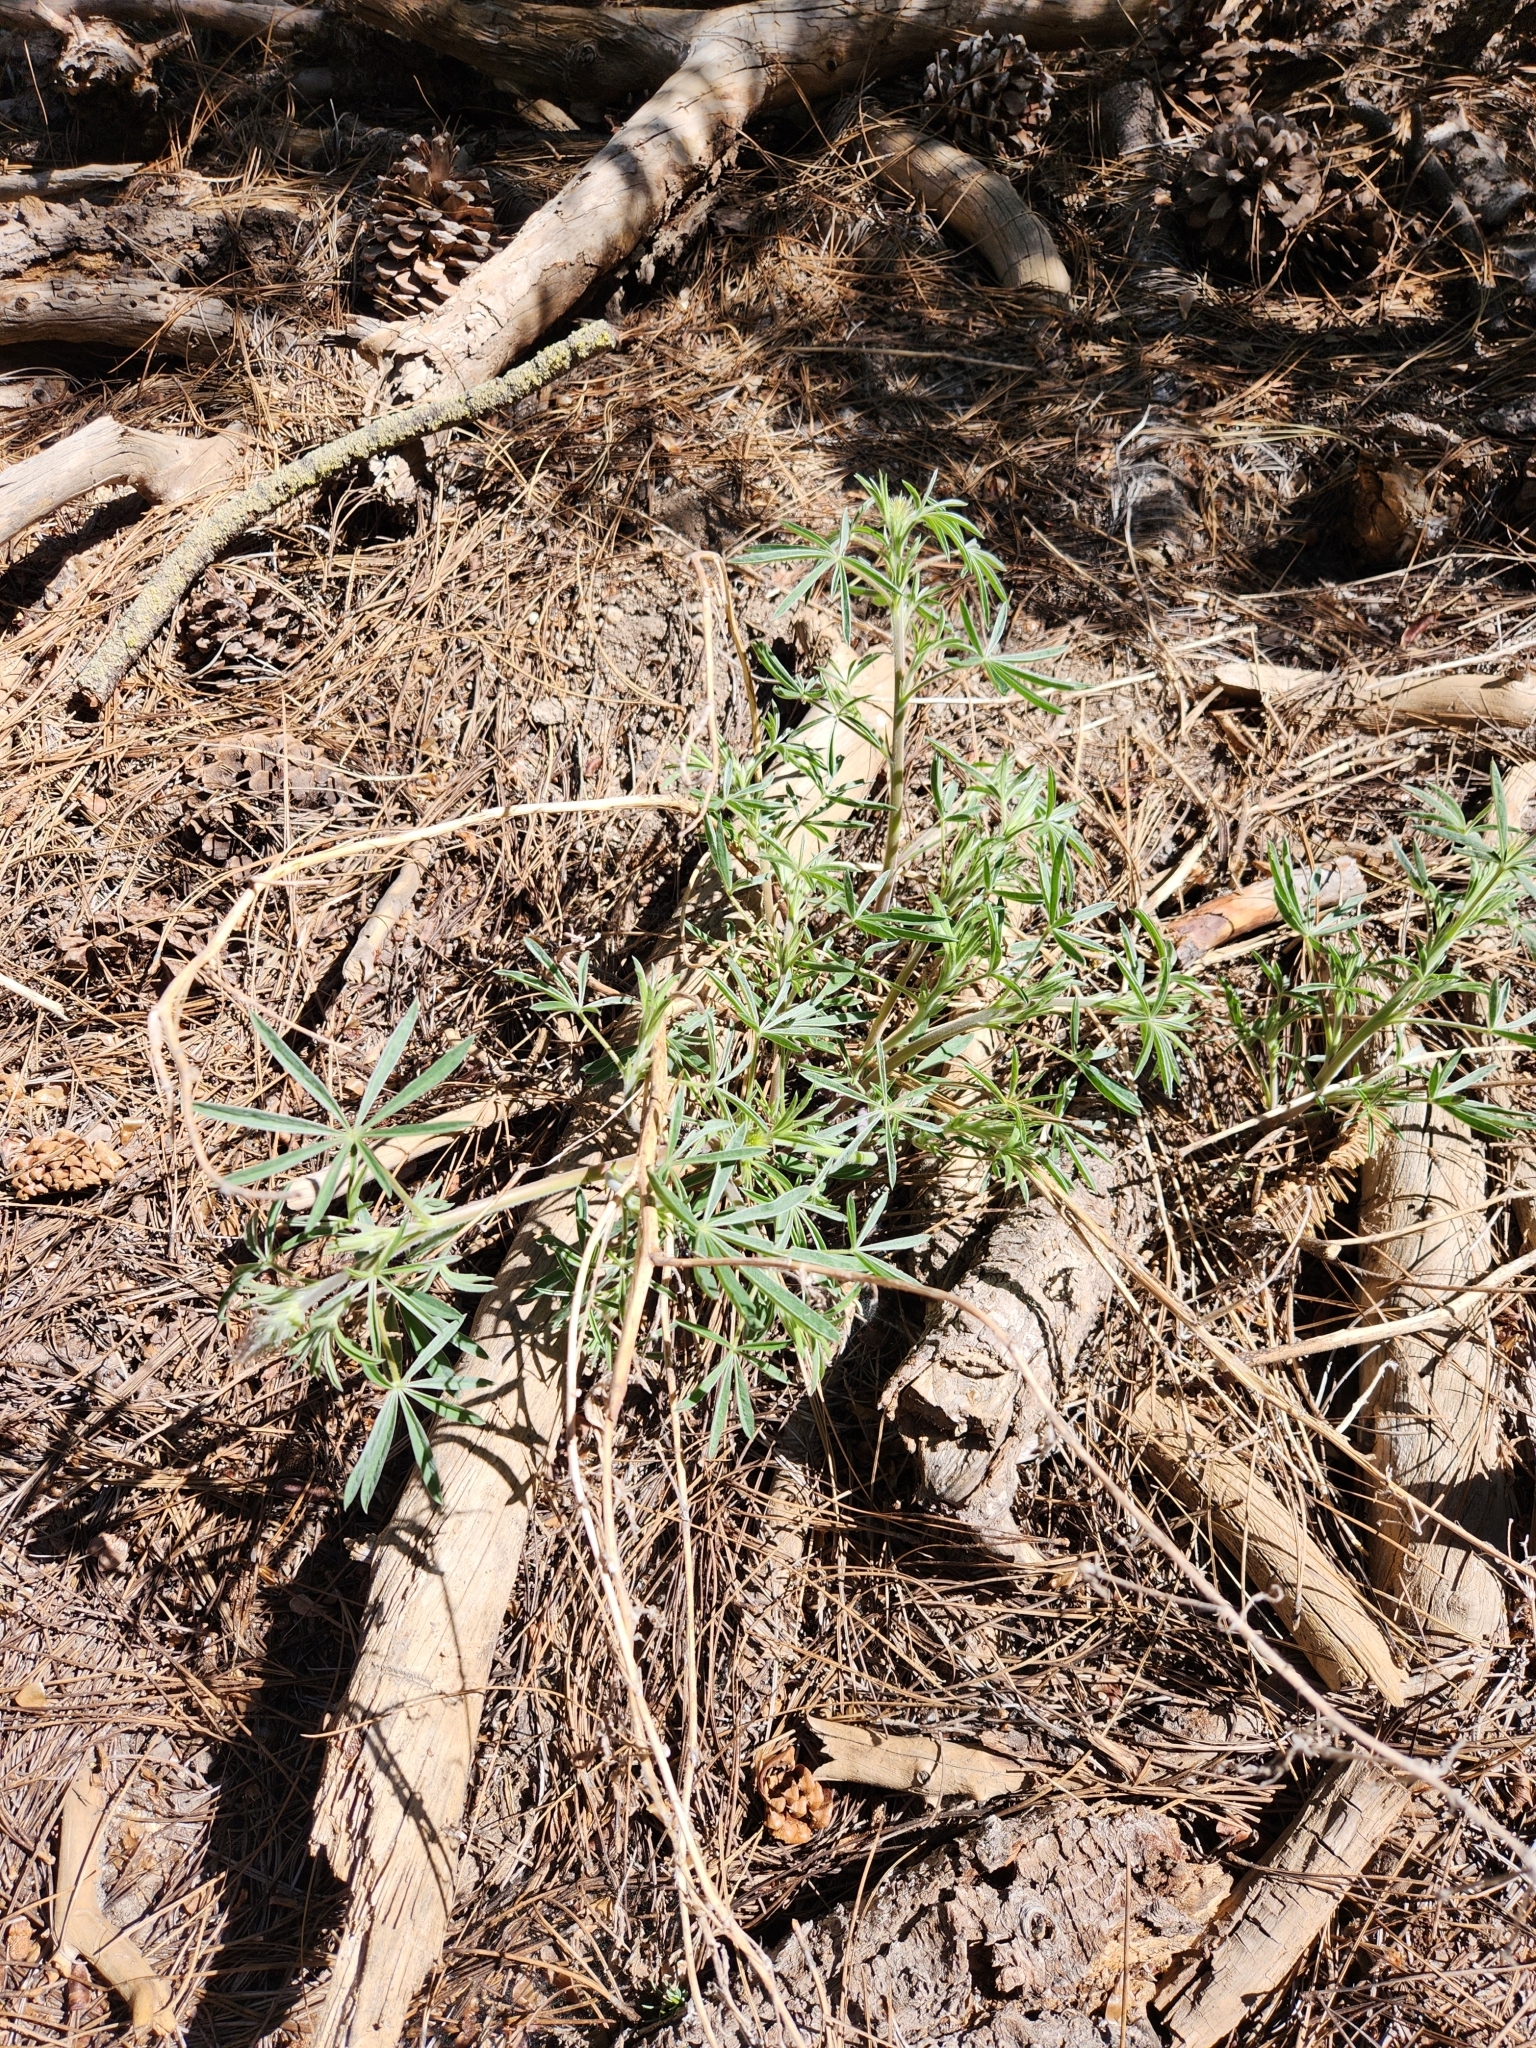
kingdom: Plantae
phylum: Tracheophyta
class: Magnoliopsida
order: Fabales
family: Fabaceae
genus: Lupinus
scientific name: Lupinus hyacinthinus
